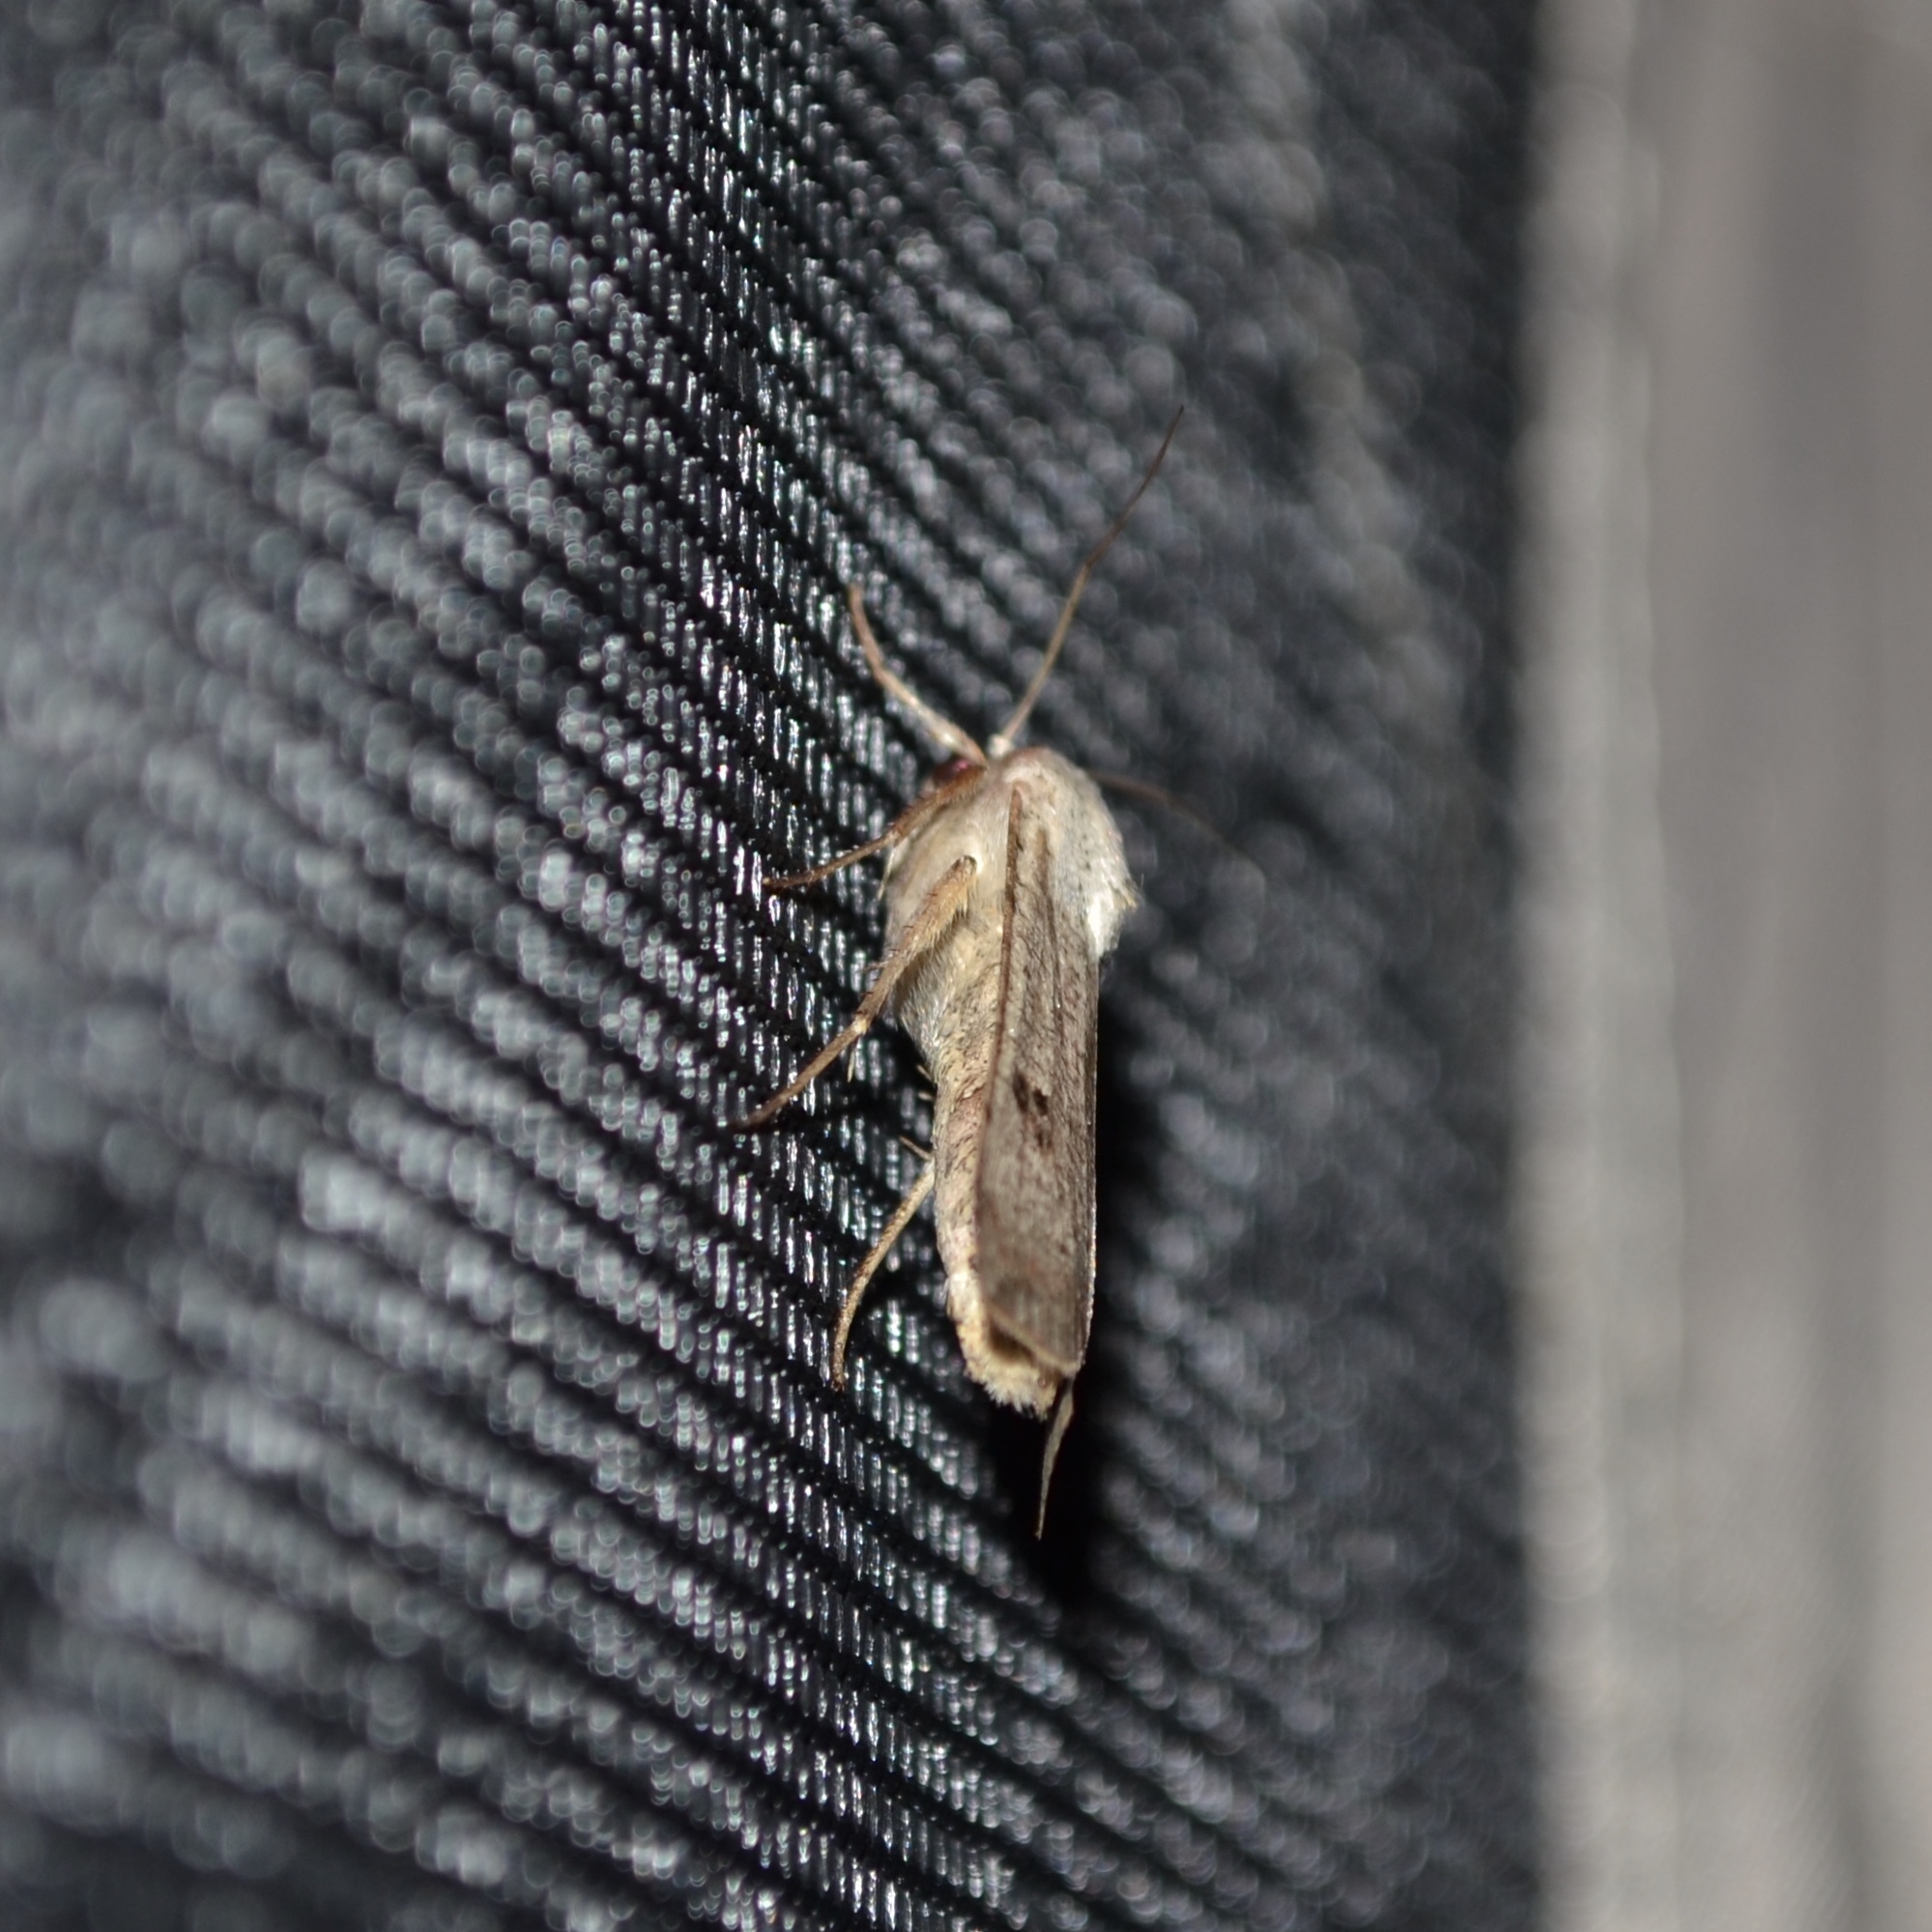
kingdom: Animalia
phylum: Arthropoda
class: Insecta
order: Lepidoptera
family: Noctuidae
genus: Anicla
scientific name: Anicla infecta
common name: Green cutworm
